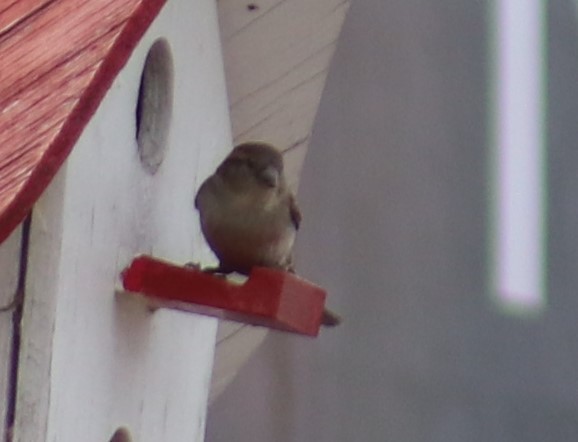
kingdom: Animalia
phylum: Chordata
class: Aves
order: Passeriformes
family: Passeridae
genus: Passer
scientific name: Passer domesticus
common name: House sparrow
